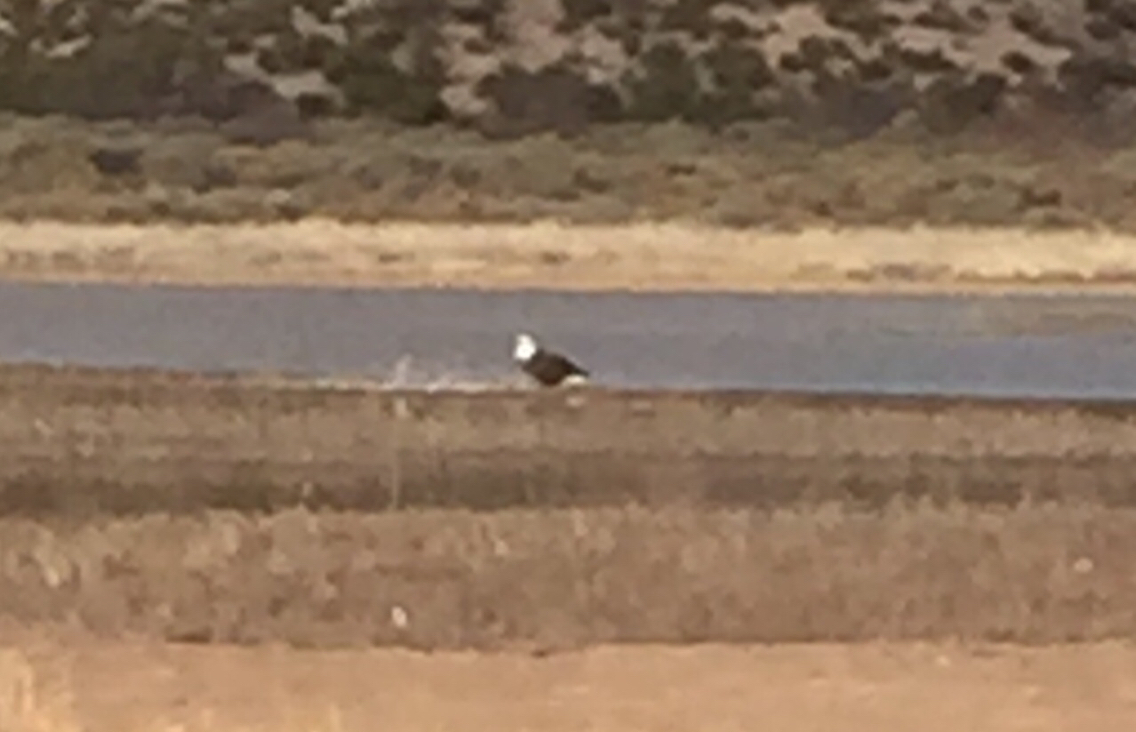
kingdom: Animalia
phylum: Chordata
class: Aves
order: Accipitriformes
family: Accipitridae
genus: Haliaeetus
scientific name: Haliaeetus leucocephalus
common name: Bald eagle
